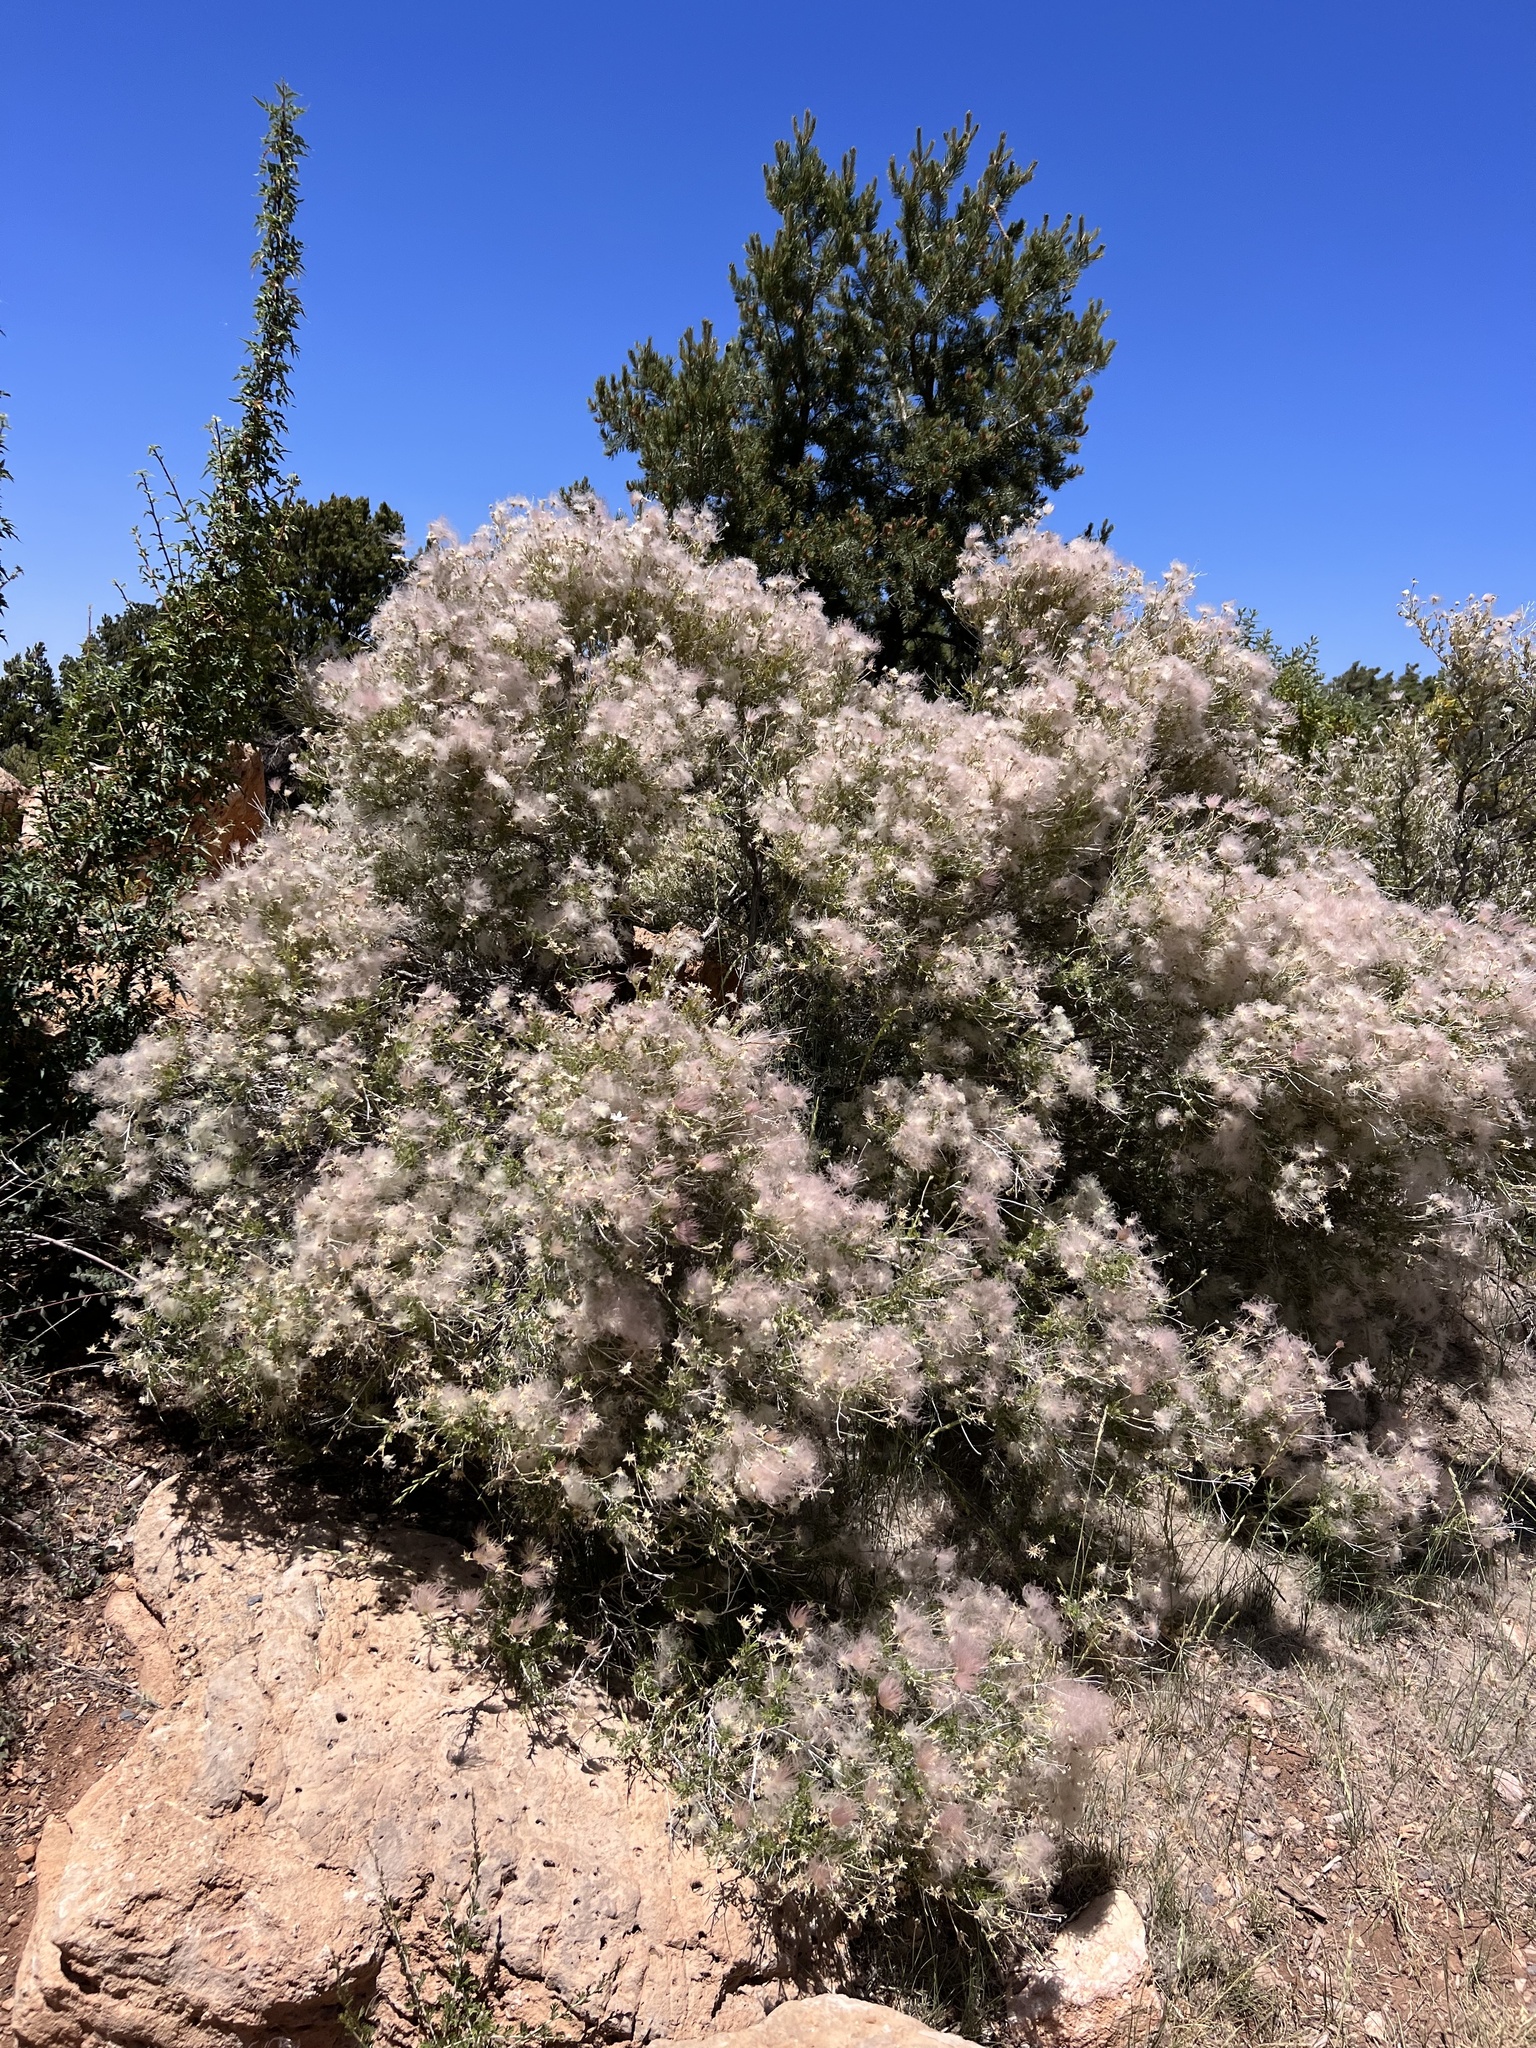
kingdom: Plantae
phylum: Tracheophyta
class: Magnoliopsida
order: Rosales
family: Rosaceae
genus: Fallugia
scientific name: Fallugia paradoxa
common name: Apache-plume
